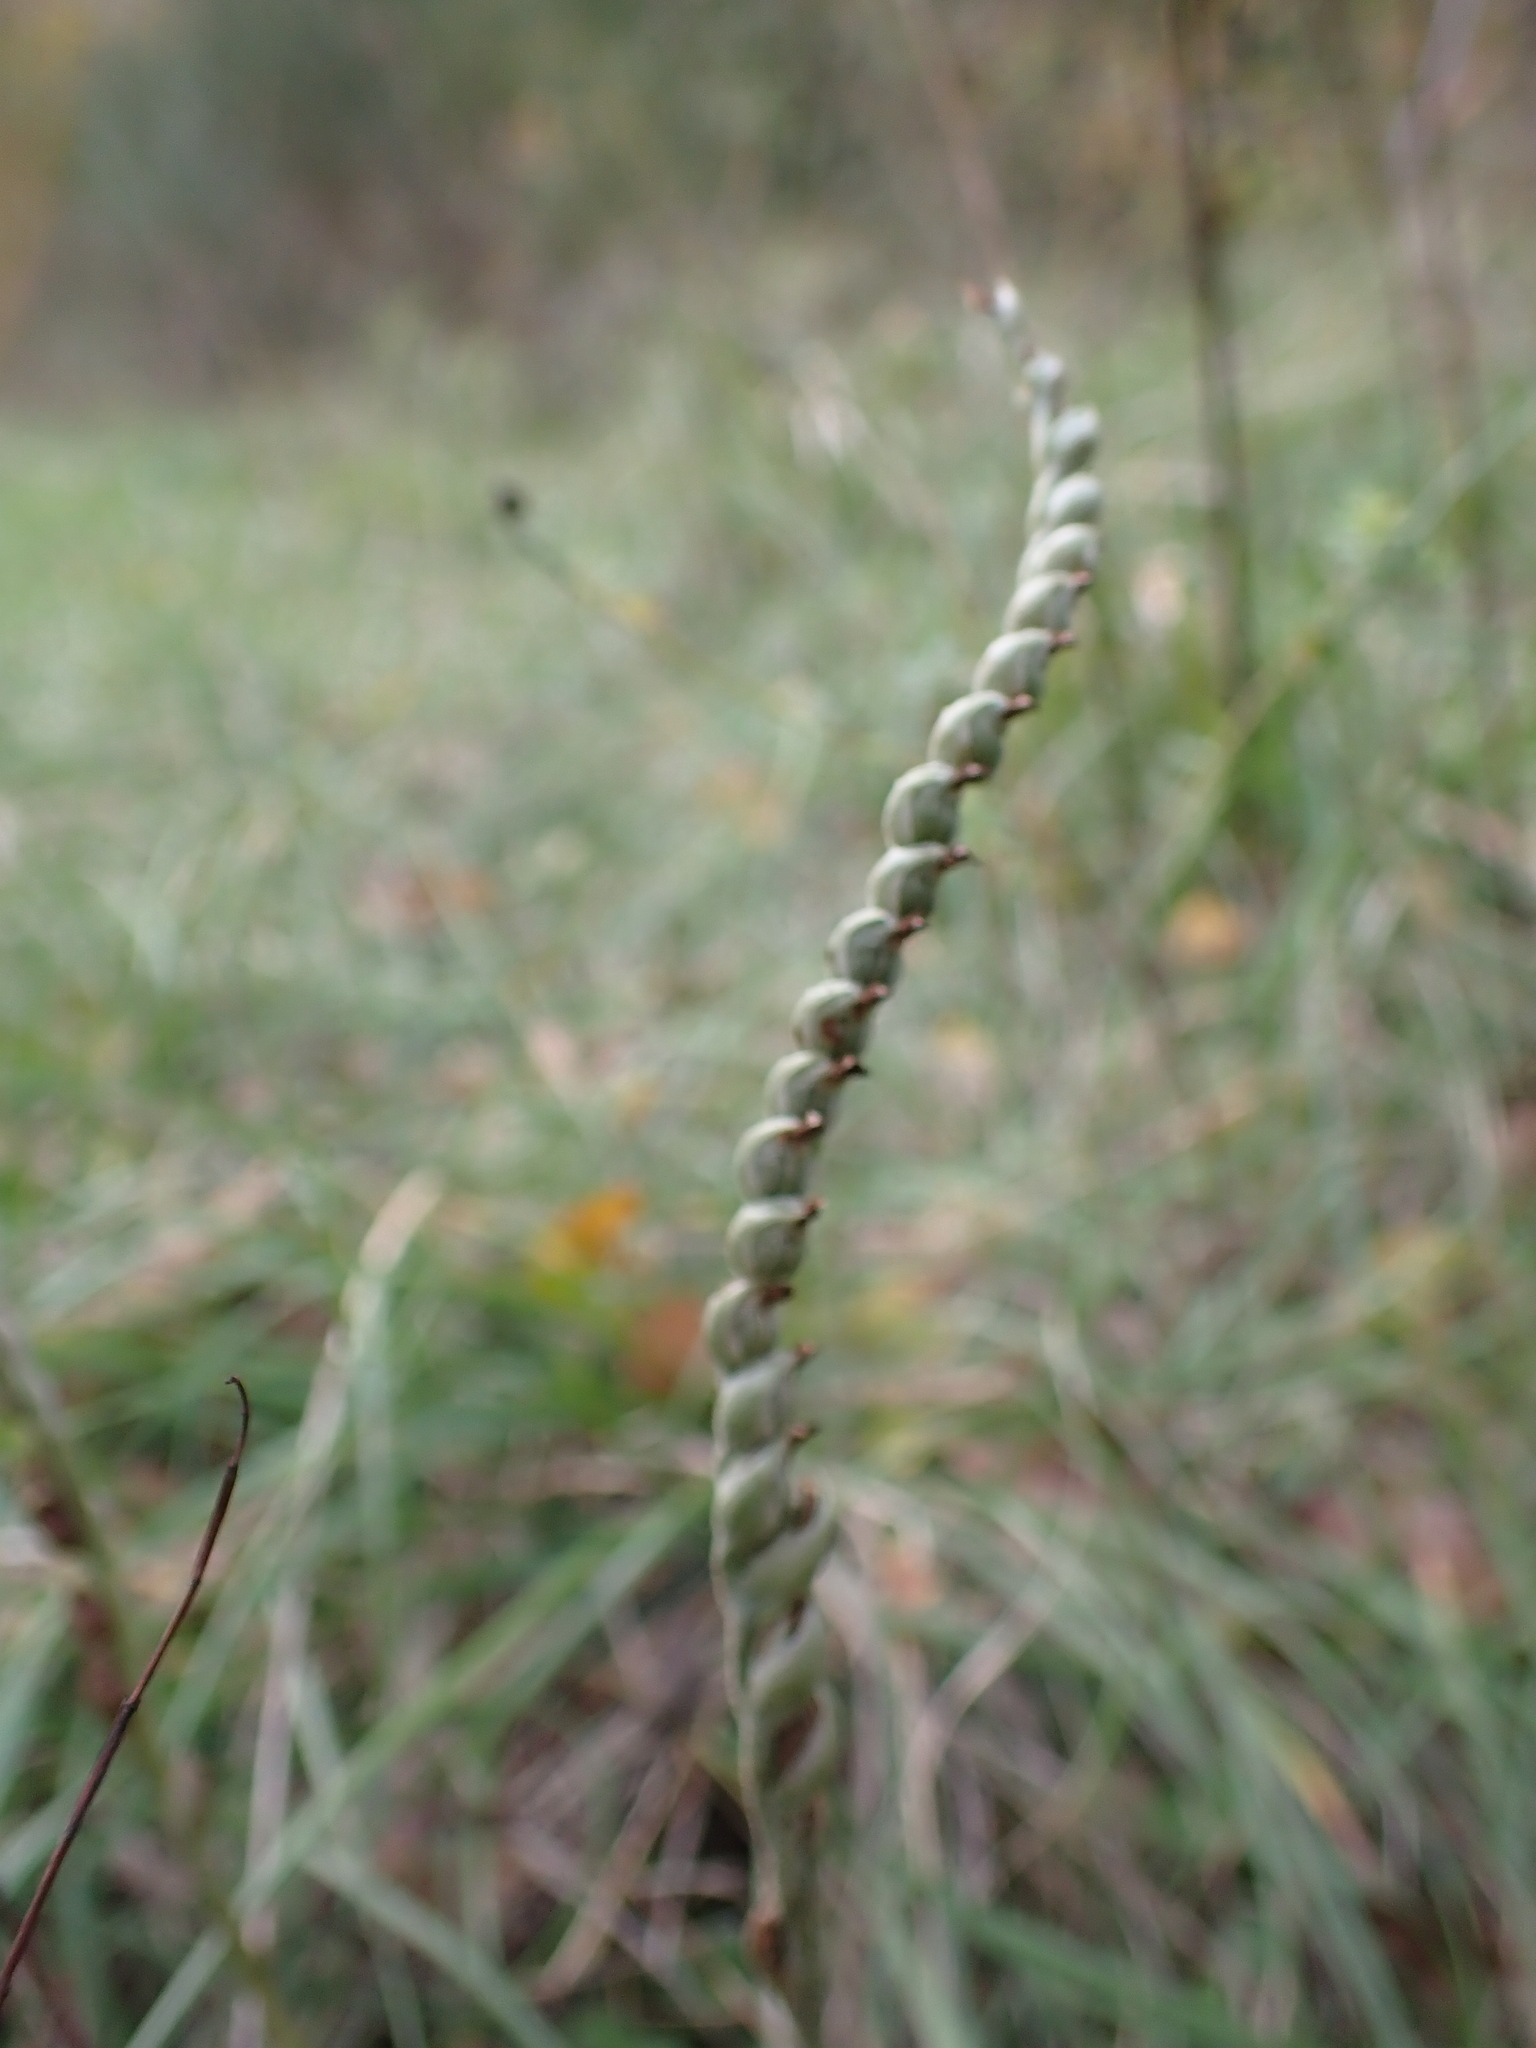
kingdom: Plantae
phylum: Tracheophyta
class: Liliopsida
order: Asparagales
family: Orchidaceae
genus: Spiranthes
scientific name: Spiranthes spiralis
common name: Autumn lady's-tresses
